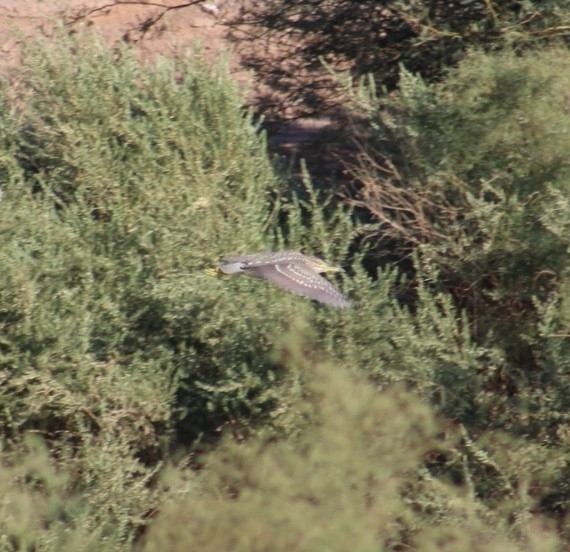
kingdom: Animalia
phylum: Chordata
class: Aves
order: Pelecaniformes
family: Ardeidae
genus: Nycticorax
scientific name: Nycticorax nycticorax
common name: Black-crowned night heron
